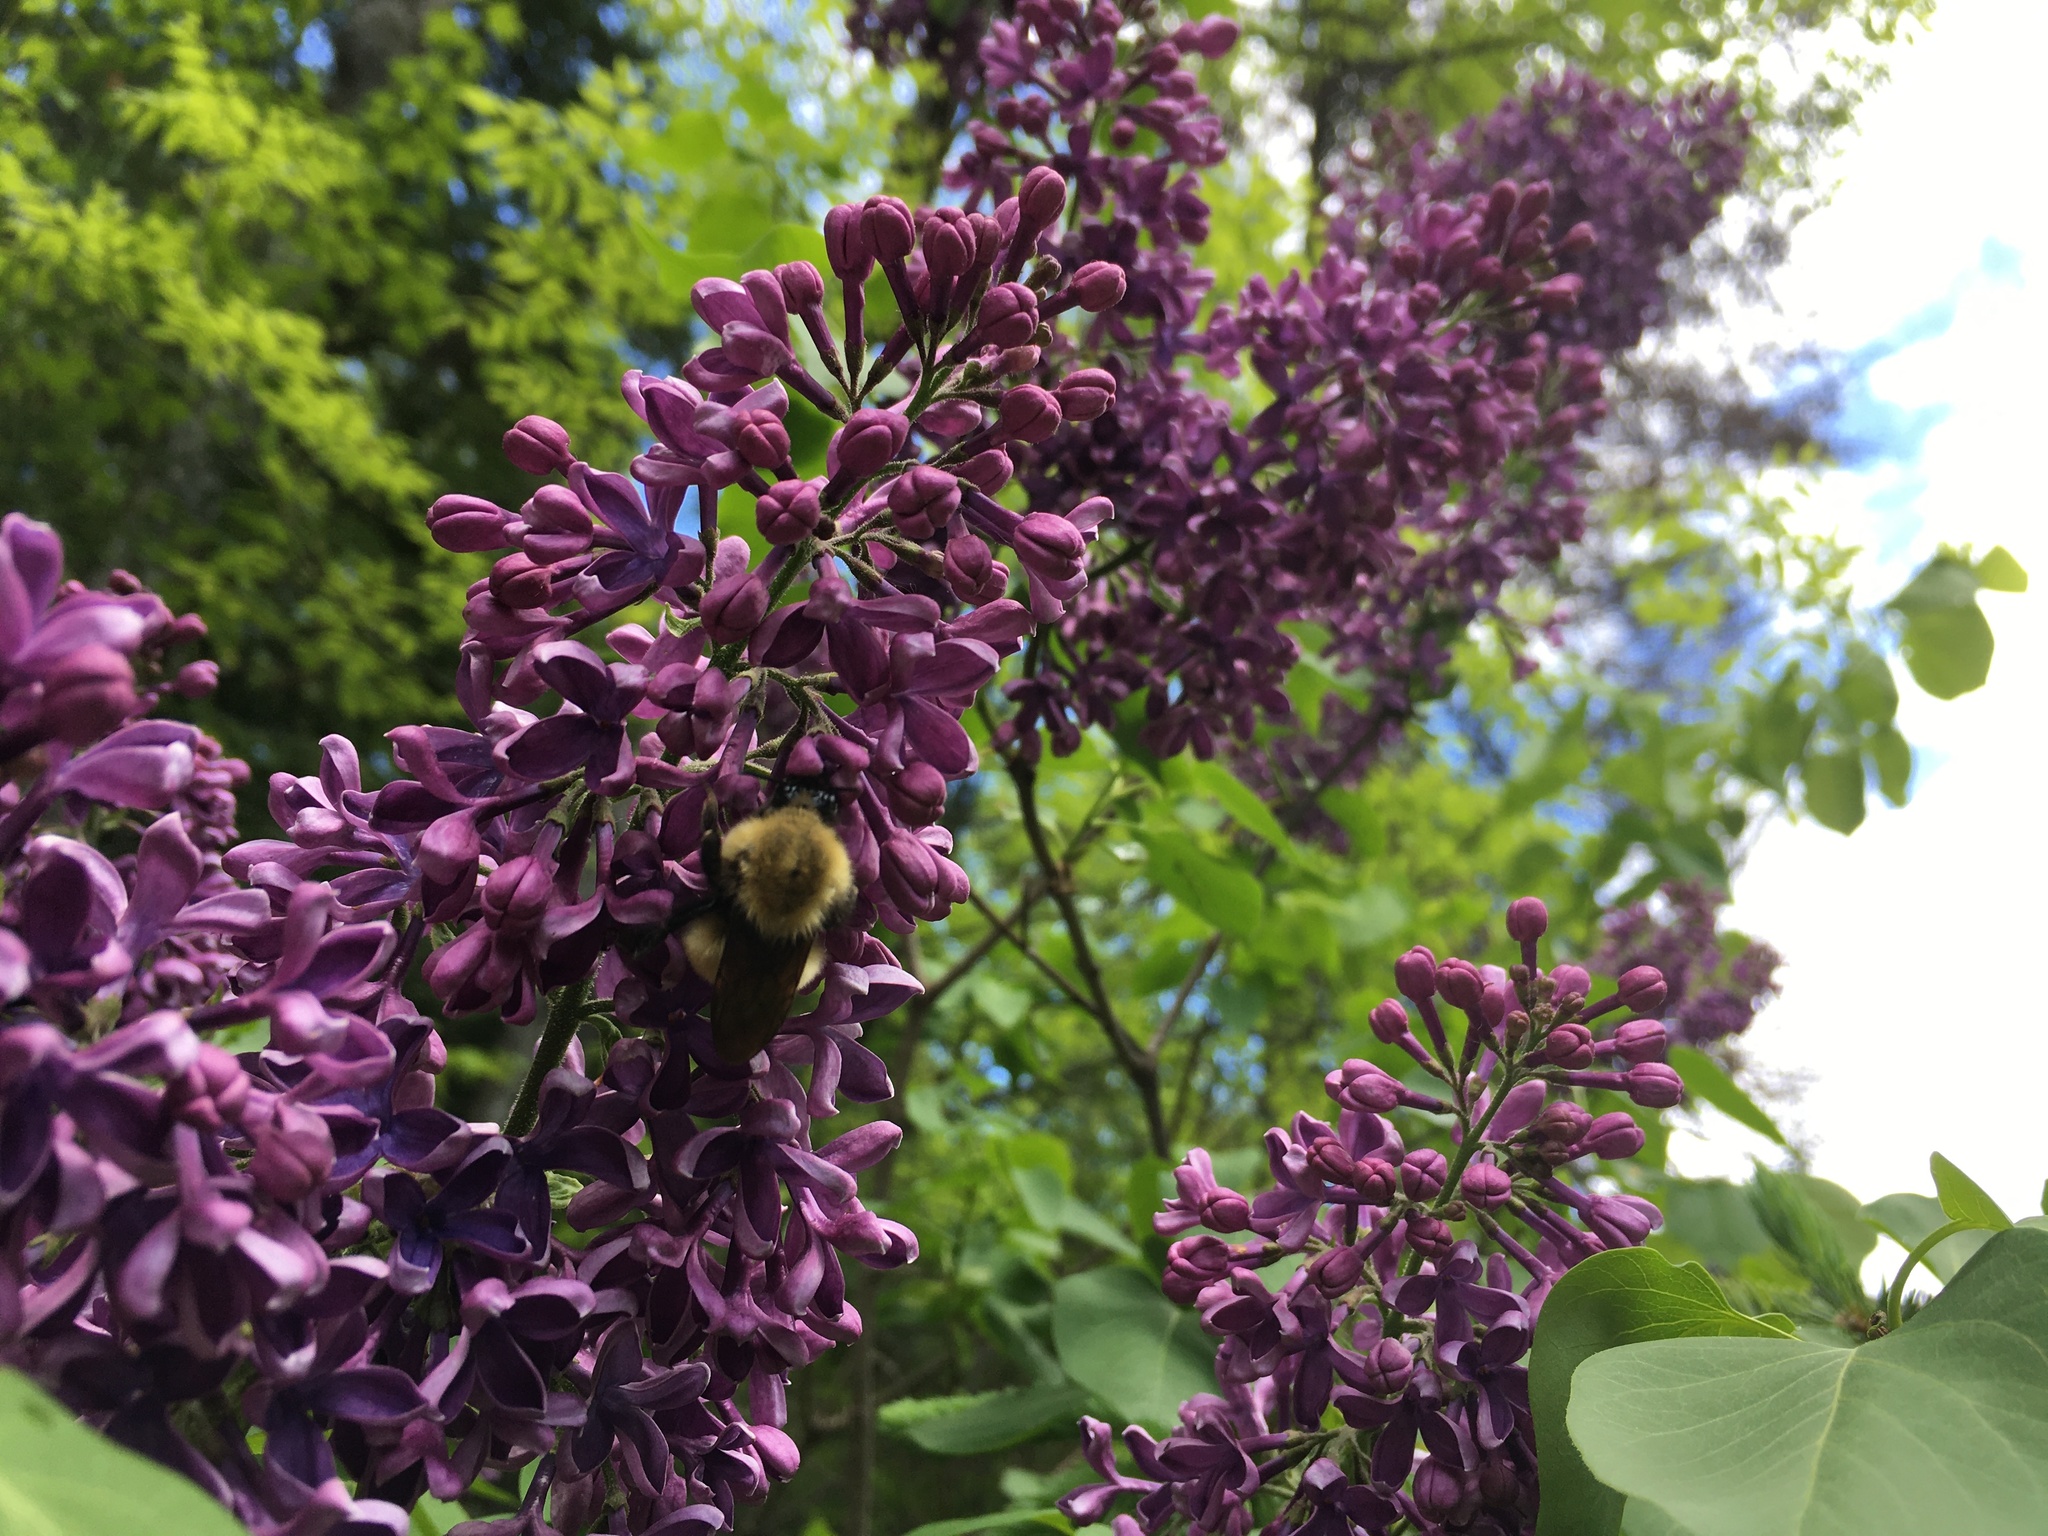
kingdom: Animalia
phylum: Arthropoda
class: Insecta
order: Hymenoptera
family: Apidae
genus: Bombus
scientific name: Bombus perplexus
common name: Confusing bumble bee
